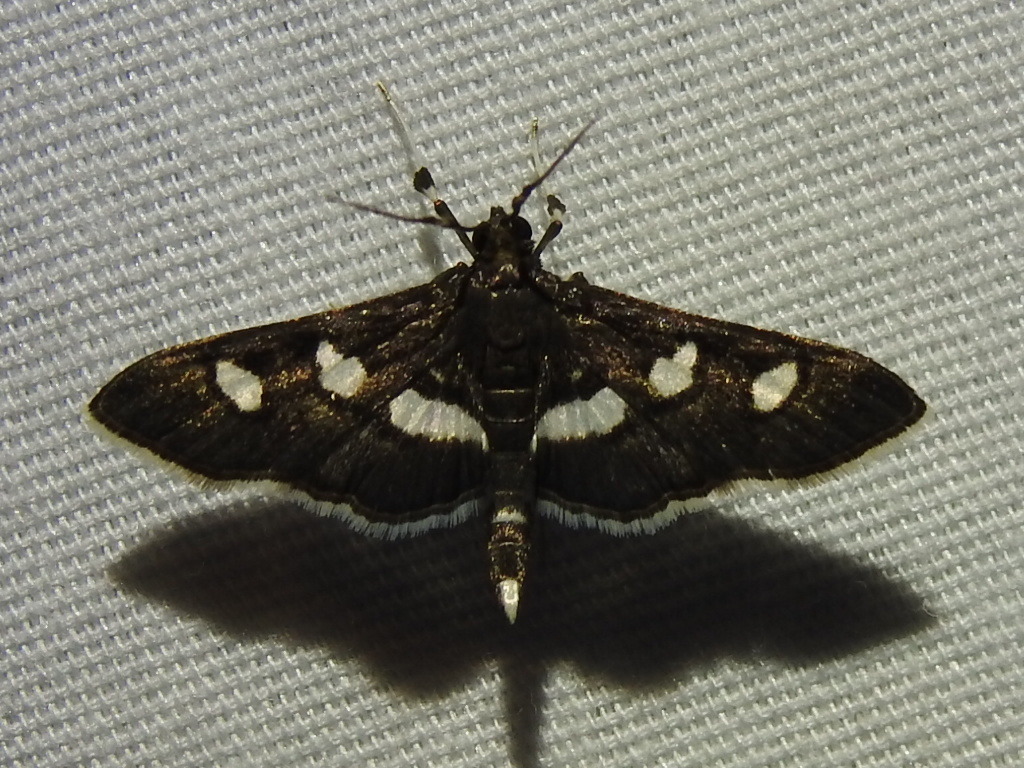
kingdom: Animalia
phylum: Arthropoda
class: Insecta
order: Lepidoptera
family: Crambidae
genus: Desmia
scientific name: Desmia funeralis
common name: Grape leaf folder moth
